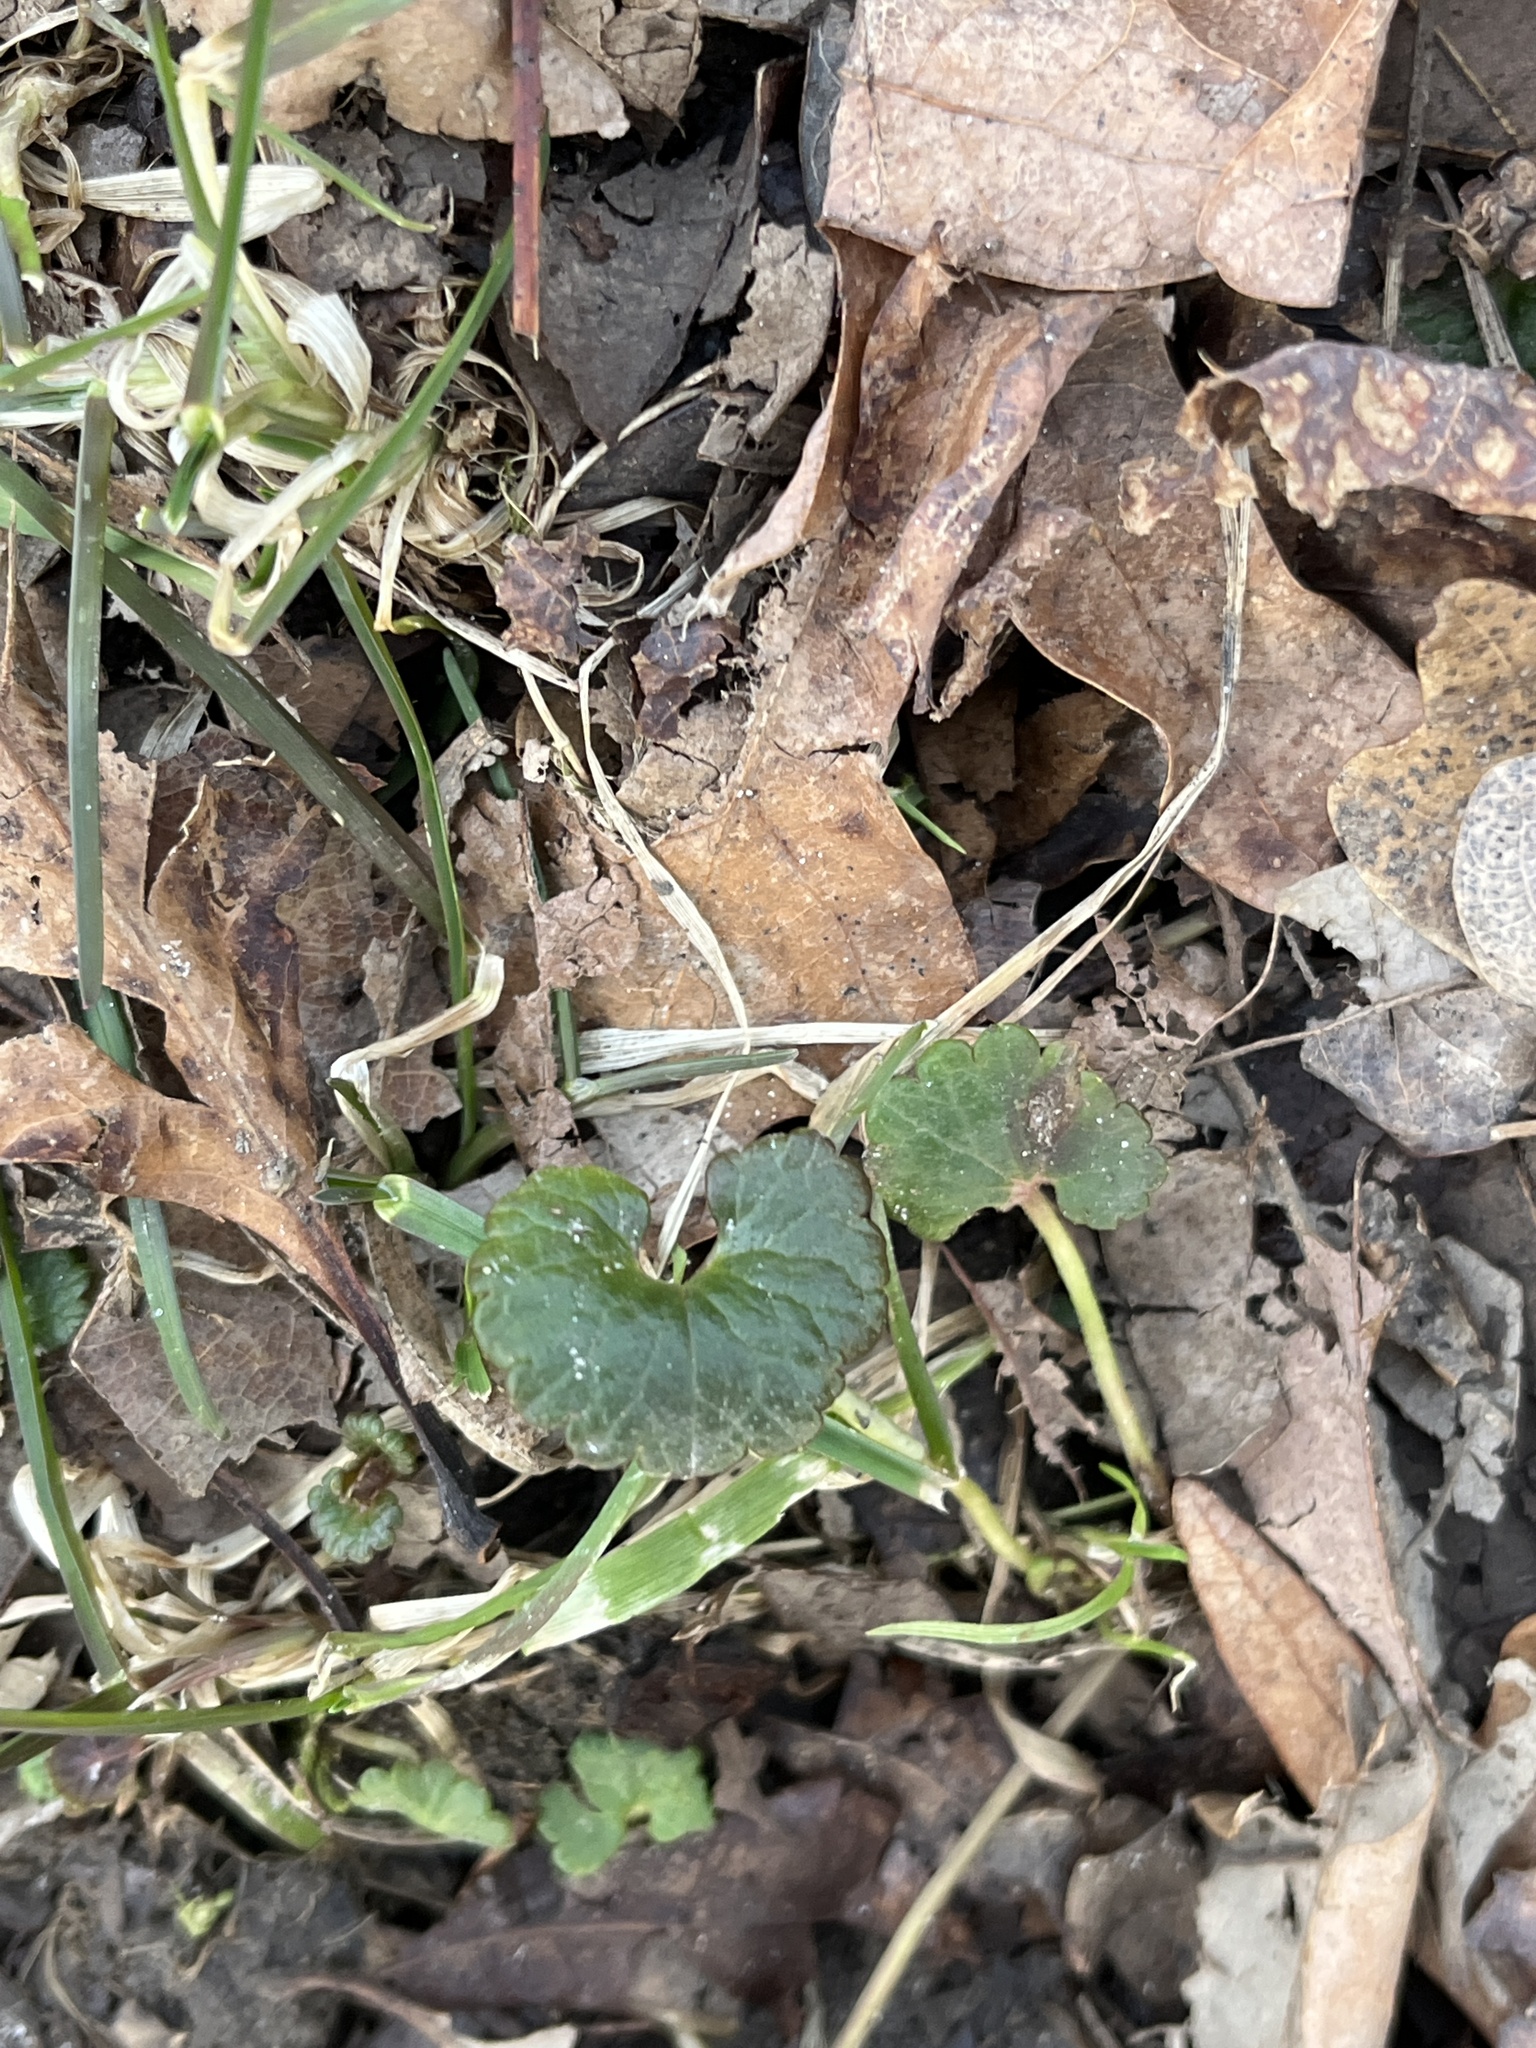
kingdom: Plantae
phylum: Tracheophyta
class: Magnoliopsida
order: Lamiales
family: Lamiaceae
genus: Glechoma
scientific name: Glechoma hederacea
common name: Ground ivy
